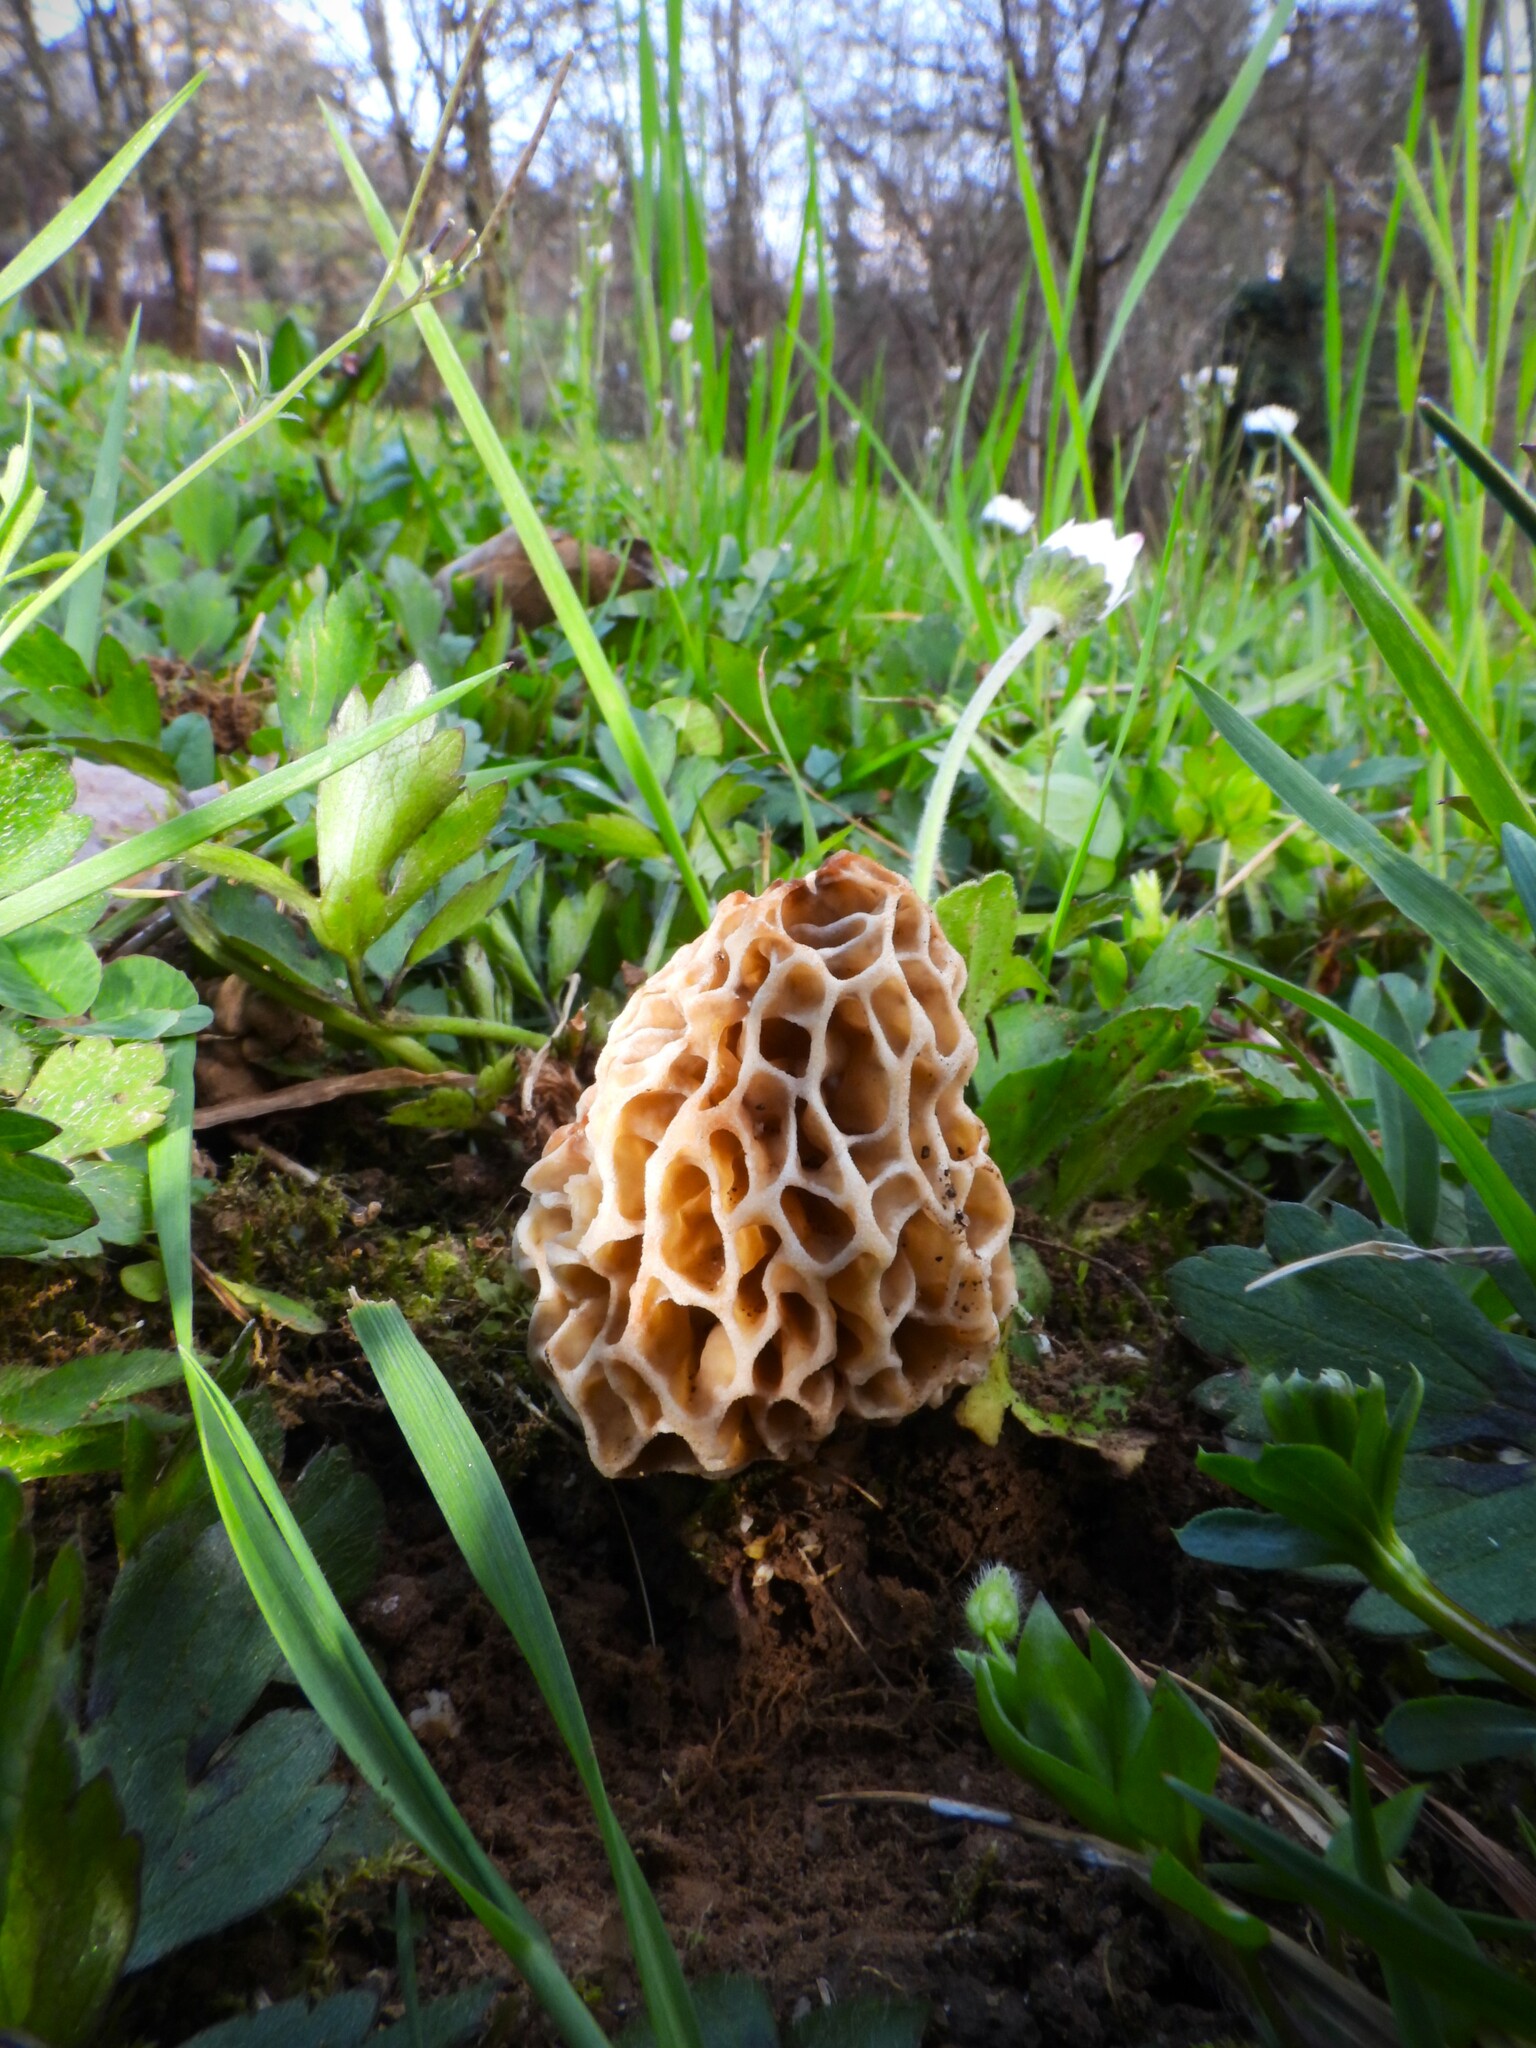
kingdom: Fungi
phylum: Ascomycota
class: Pezizomycetes
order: Pezizales
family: Morchellaceae
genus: Morchella
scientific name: Morchella esculenta
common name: Morel
